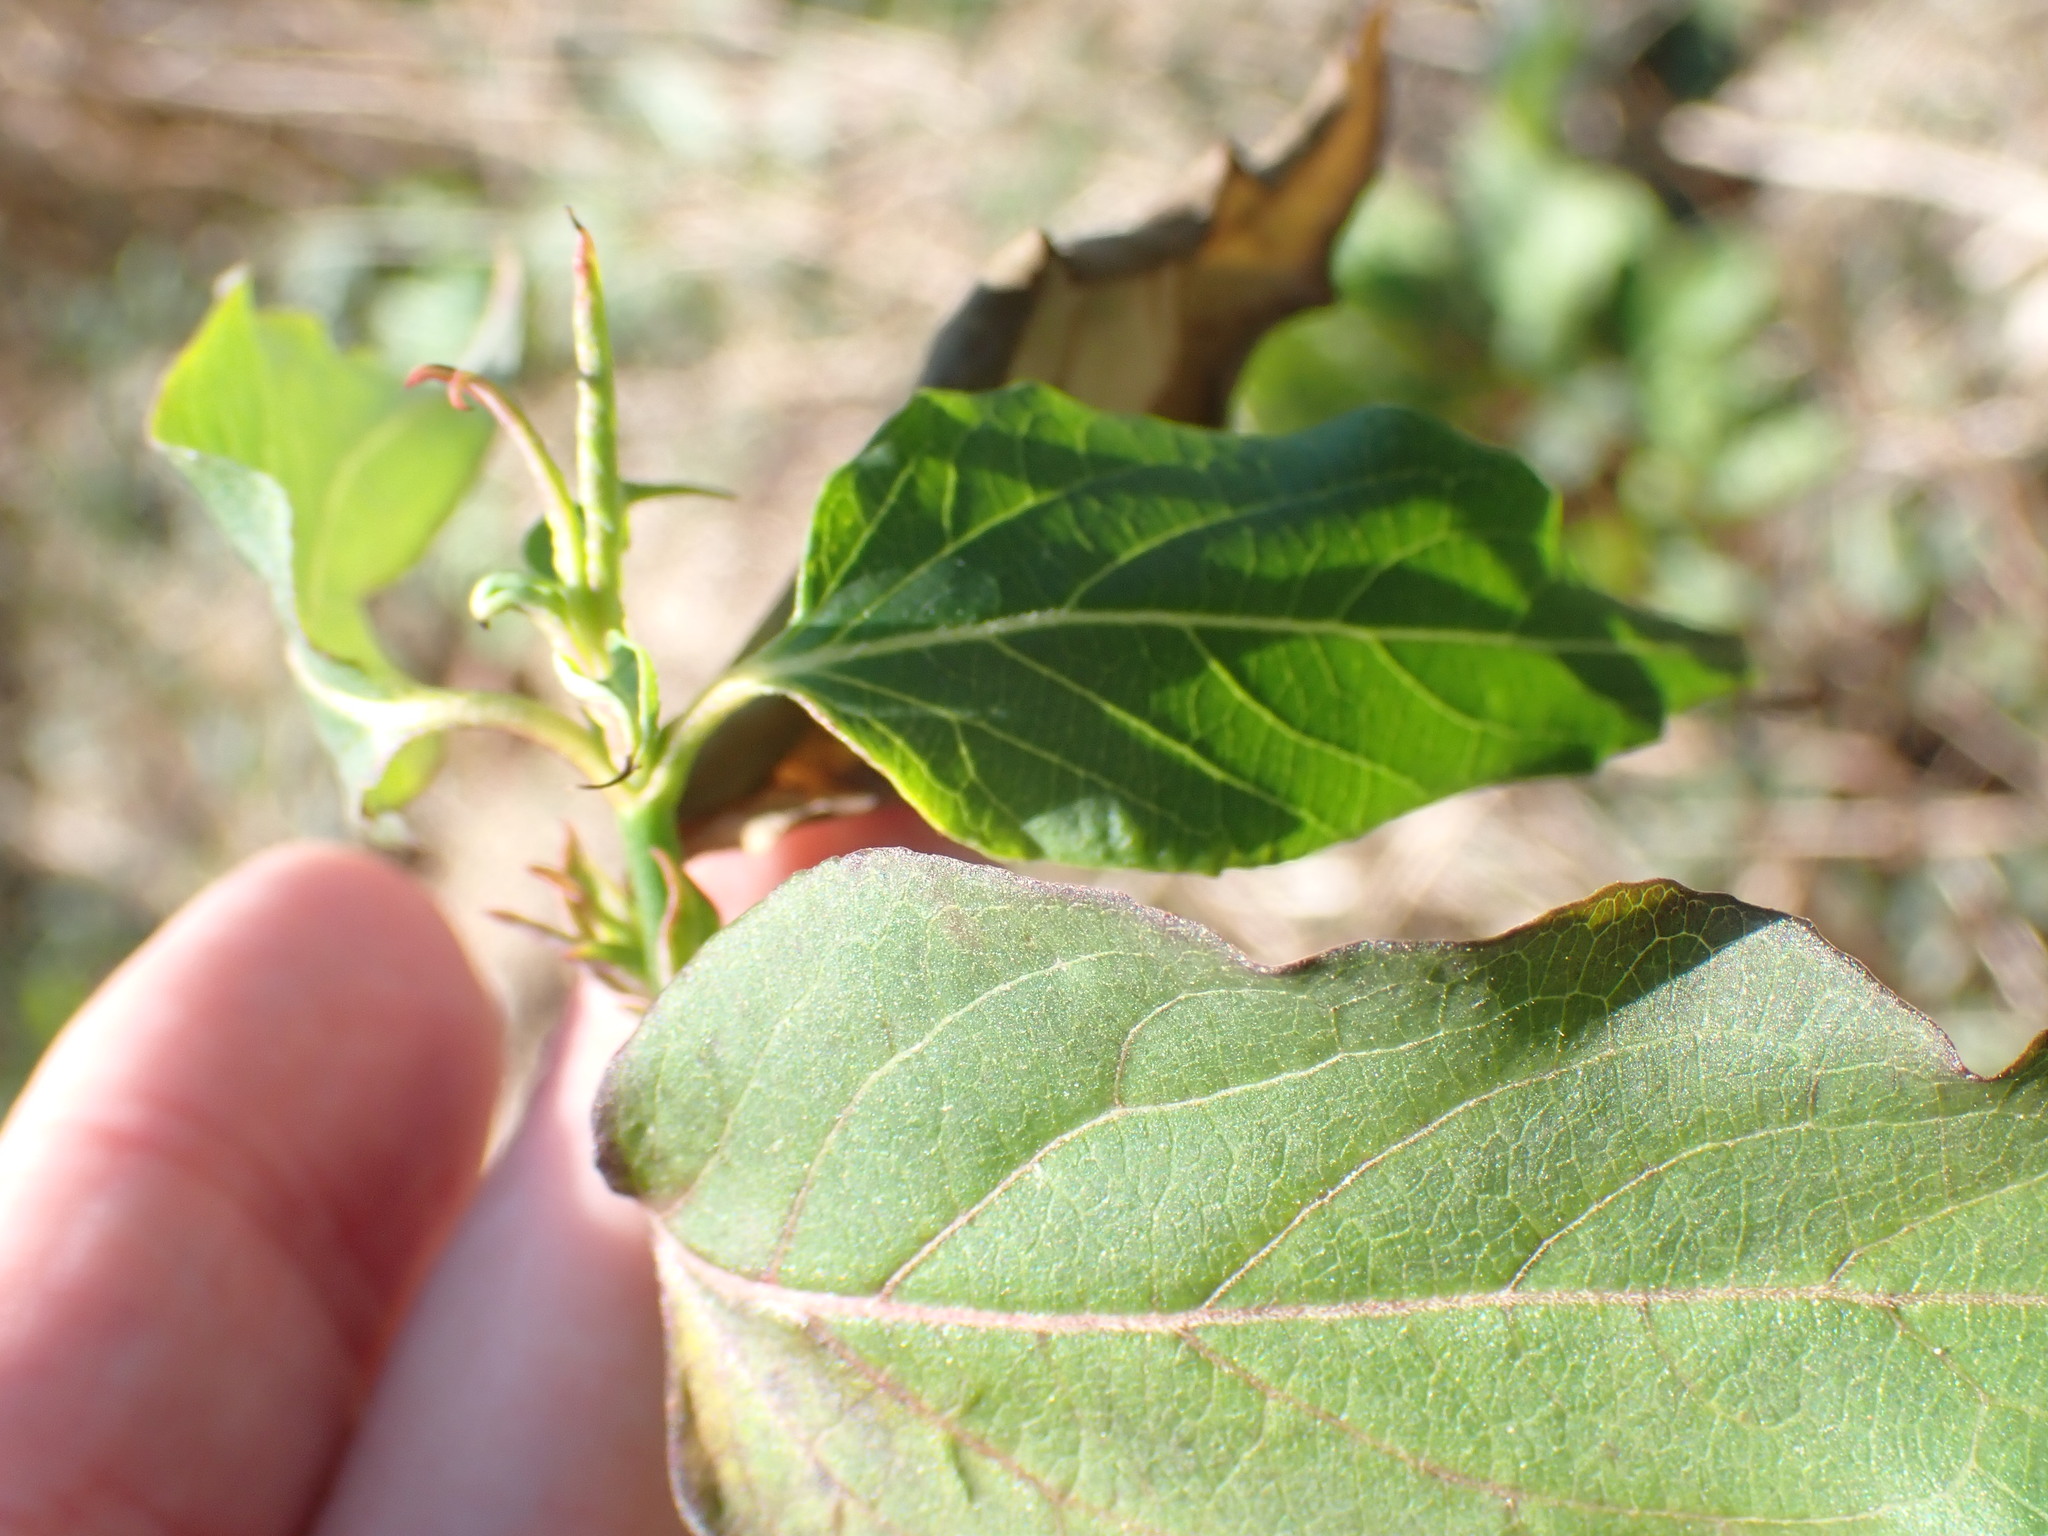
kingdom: Plantae
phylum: Tracheophyta
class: Magnoliopsida
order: Dipsacales
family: Caprifoliaceae
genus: Leycesteria
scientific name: Leycesteria formosa
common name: Himalayan honeysuckle
